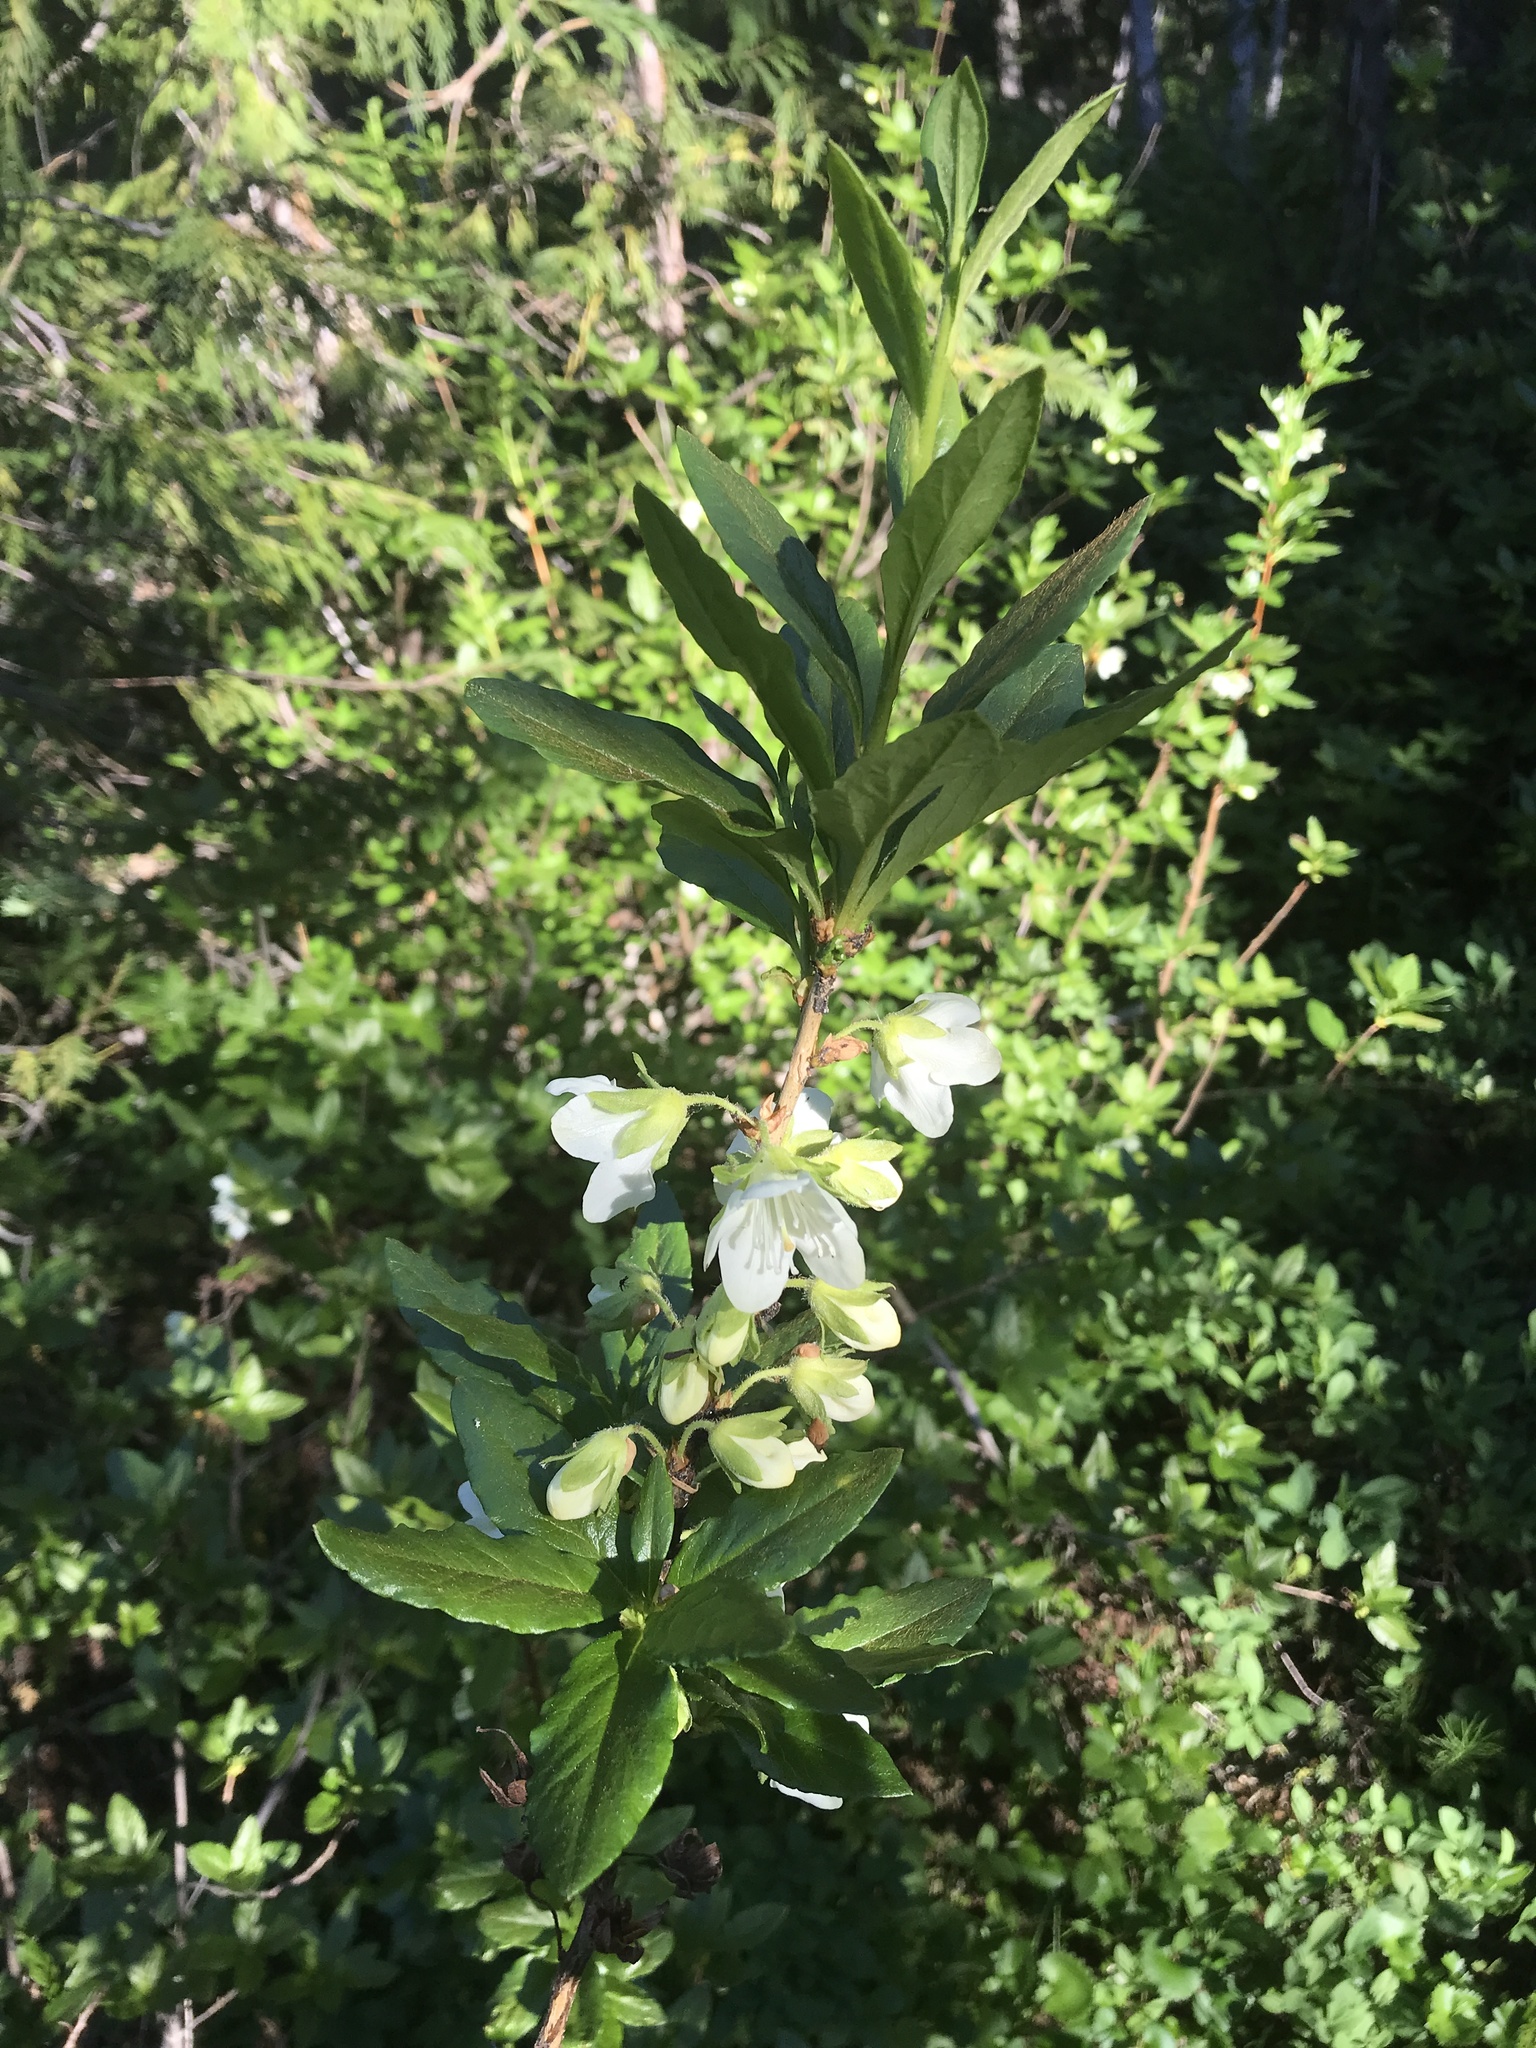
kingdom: Plantae
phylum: Tracheophyta
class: Magnoliopsida
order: Ericales
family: Ericaceae
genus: Rhododendron
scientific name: Rhododendron albiflorum
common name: White rhododendron
